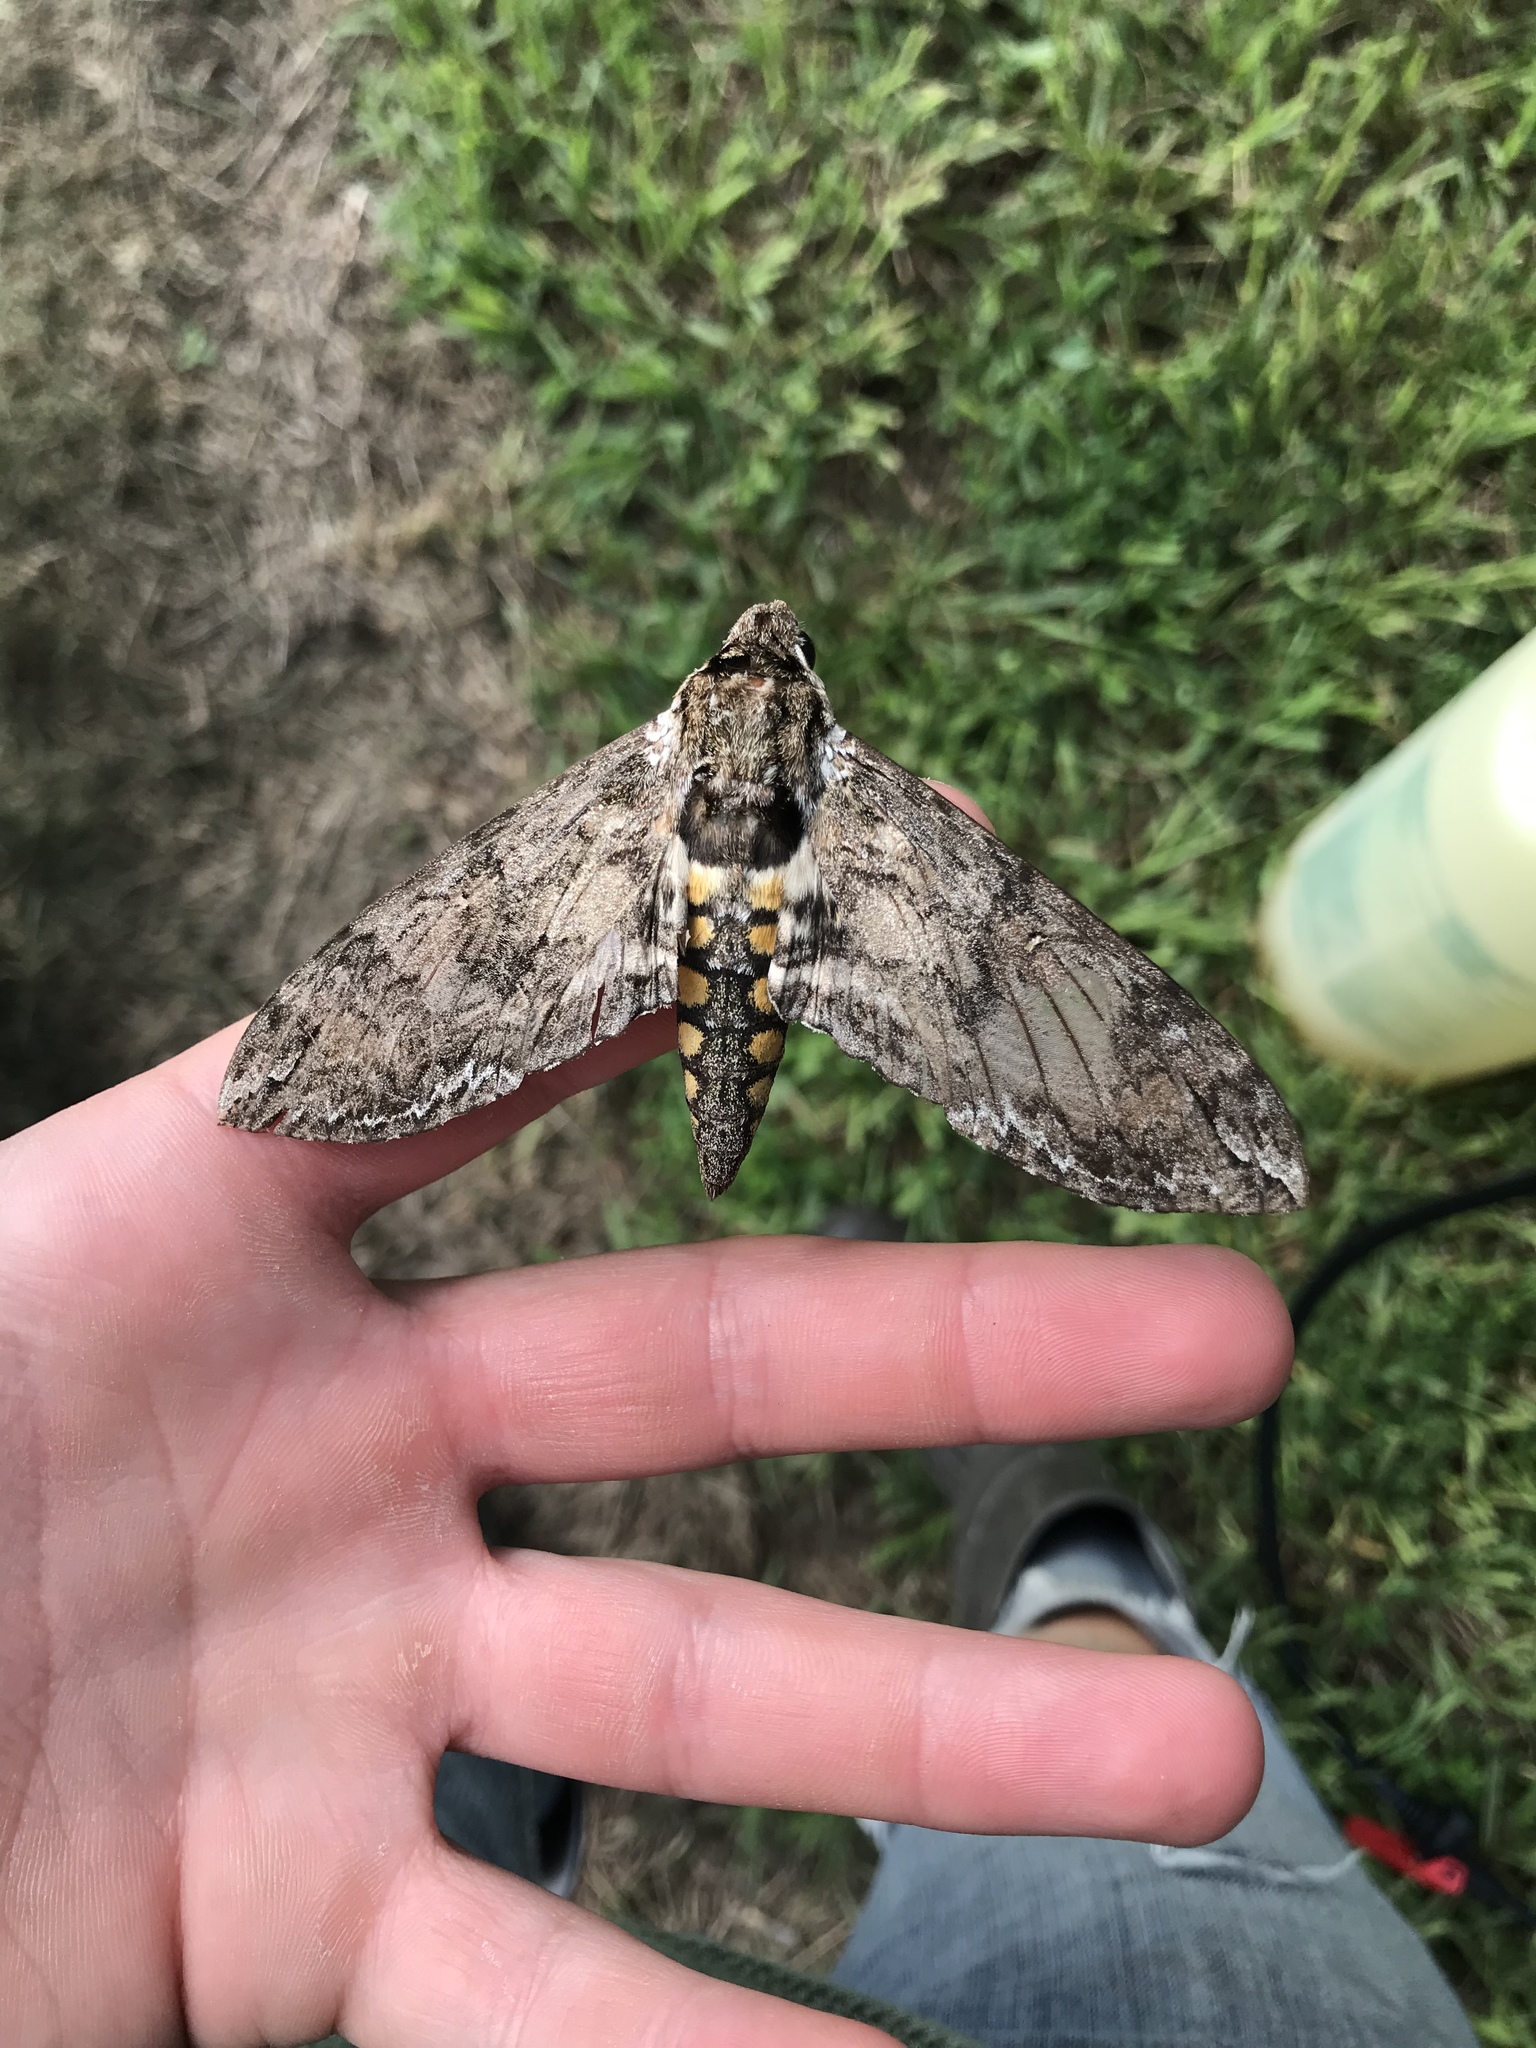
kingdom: Animalia
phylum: Arthropoda
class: Insecta
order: Lepidoptera
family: Sphingidae
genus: Manduca
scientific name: Manduca sexta
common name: Carolina sphinx
